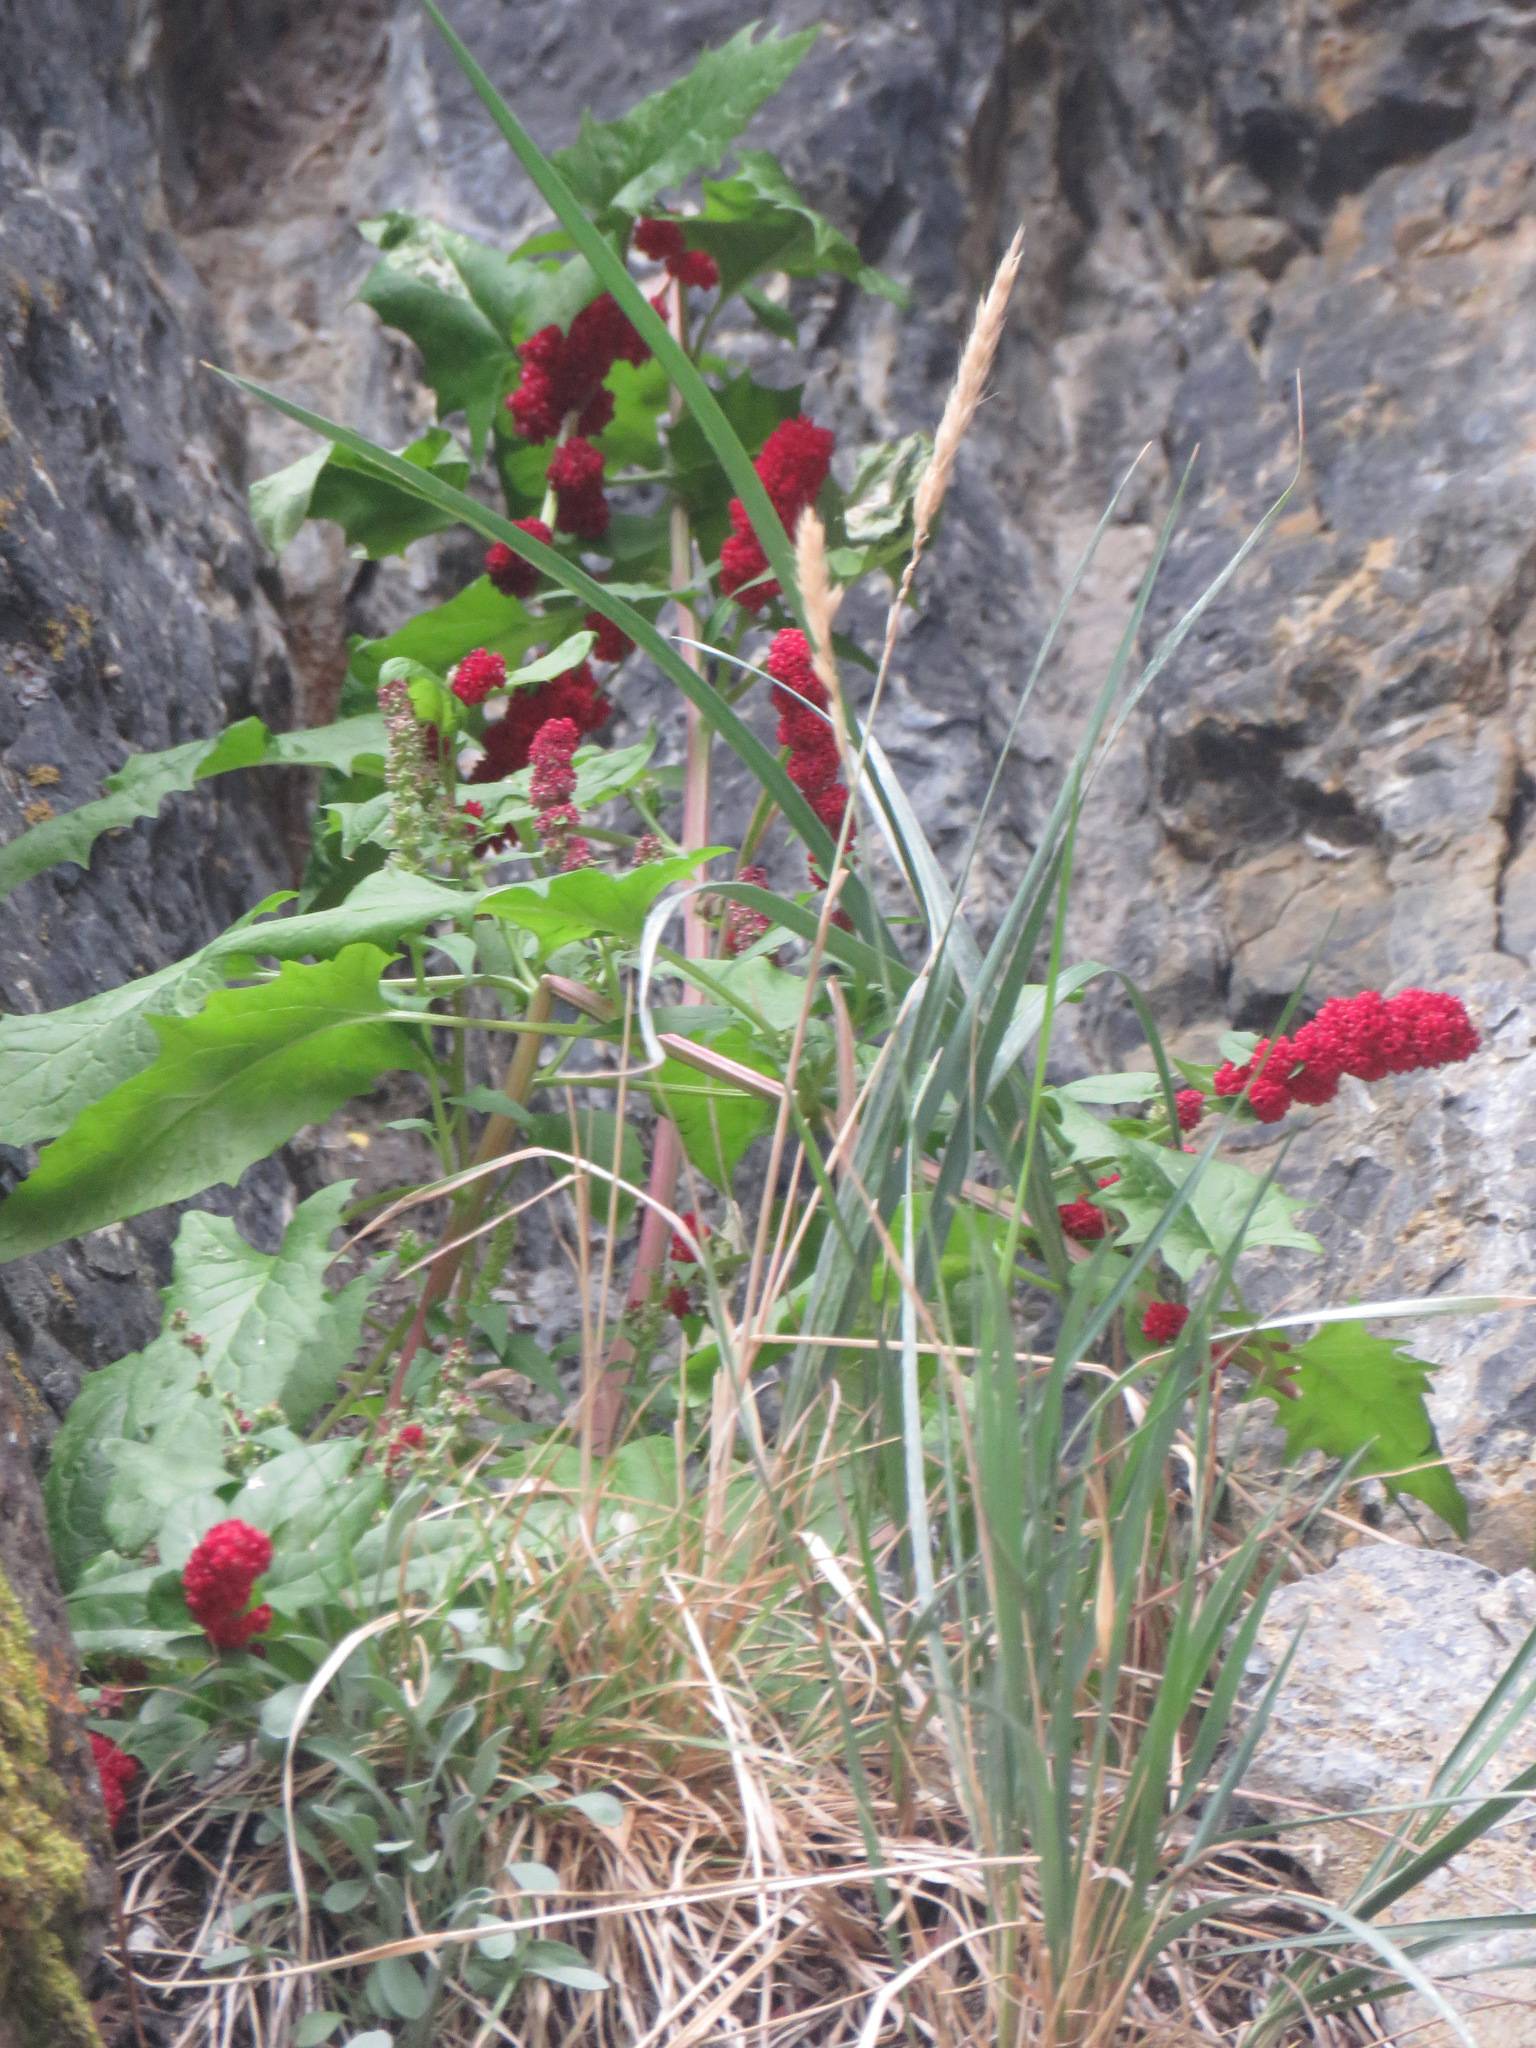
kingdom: Plantae
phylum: Tracheophyta
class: Magnoliopsida
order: Caryophyllales
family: Amaranthaceae
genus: Blitum
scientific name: Blitum capitatum
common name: Strawberry-blight
